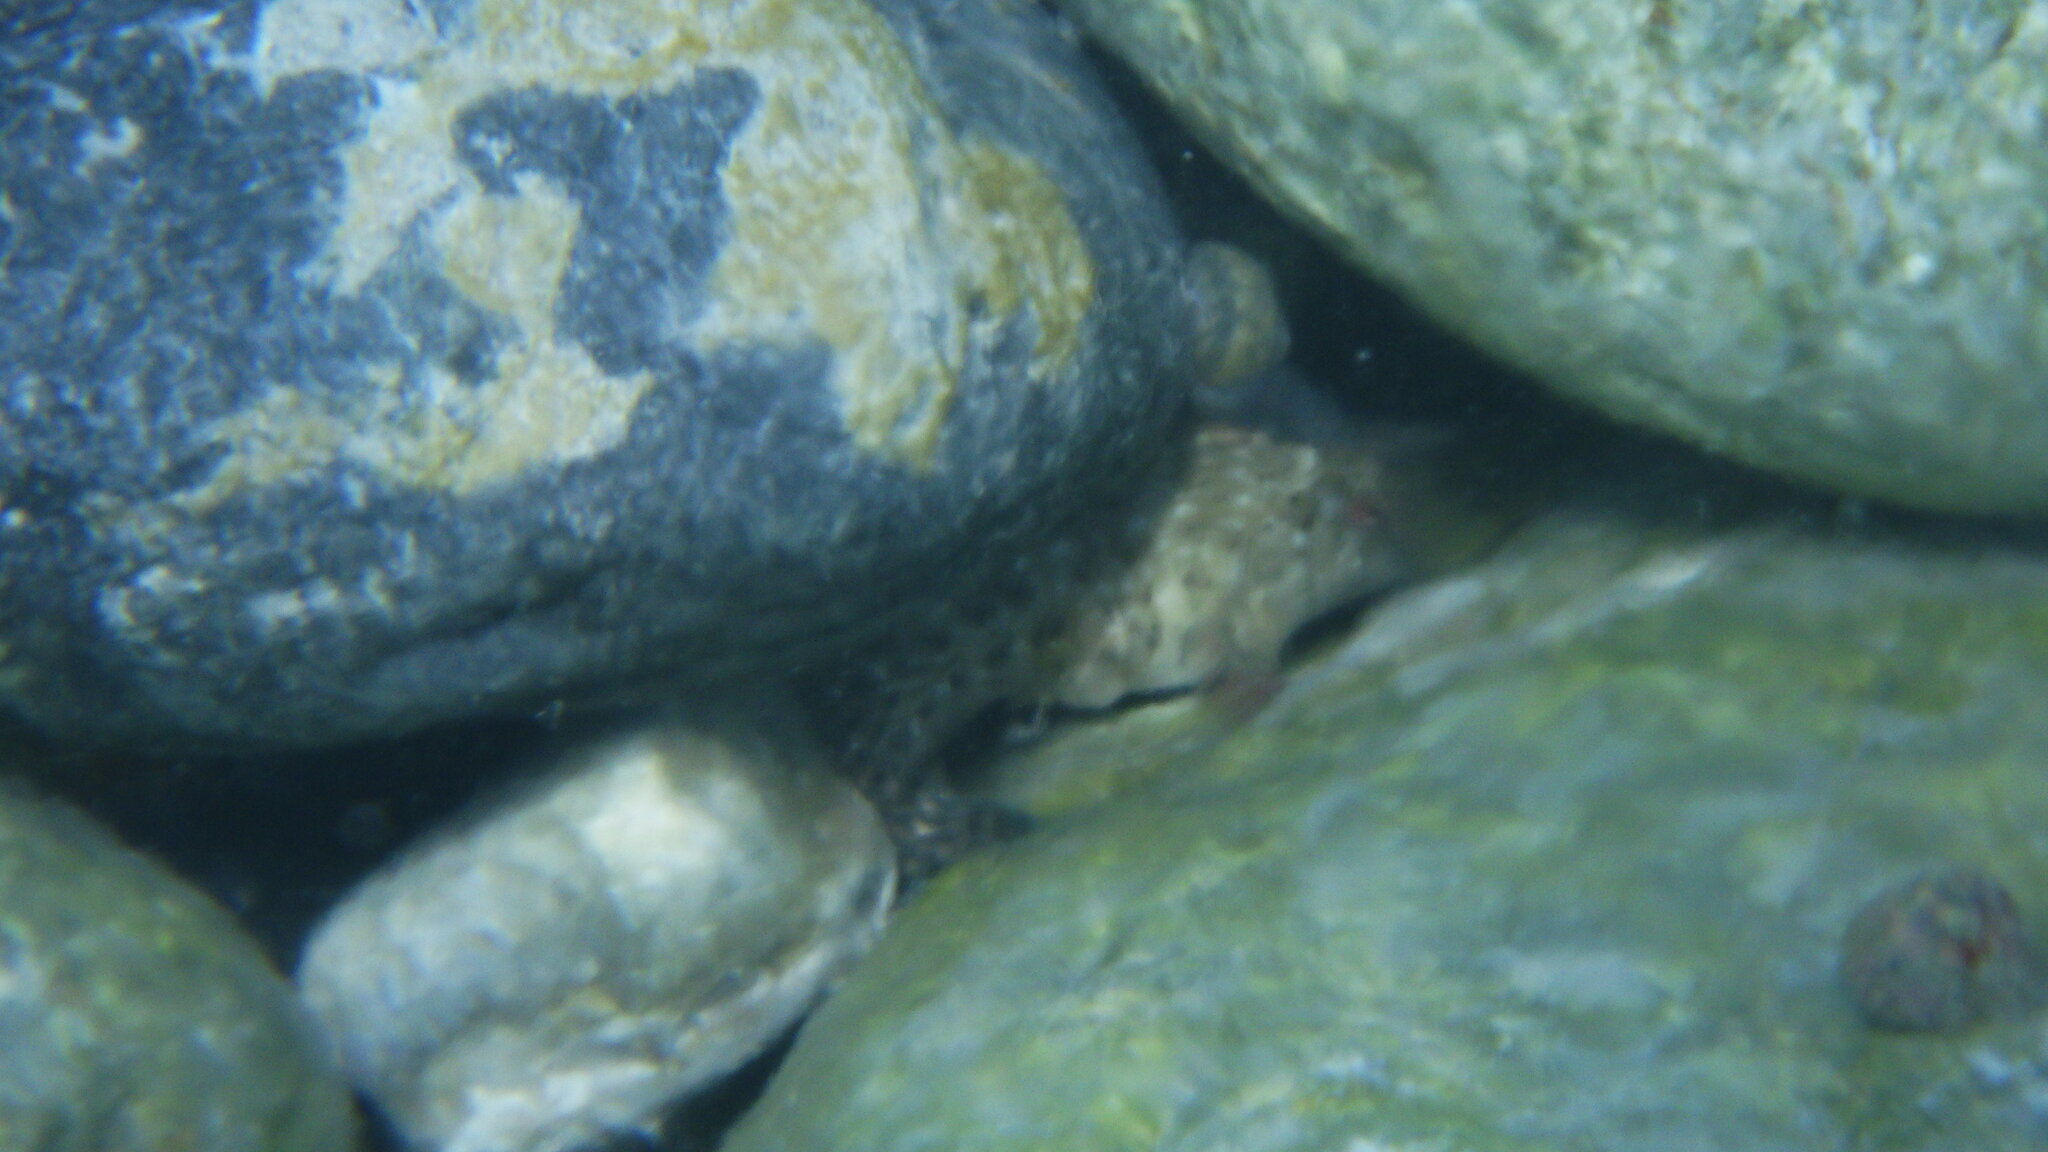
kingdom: Animalia
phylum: Chordata
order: Perciformes
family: Blenniidae
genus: Parablennius
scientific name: Parablennius sanguinolentus
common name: Black sea blenny
